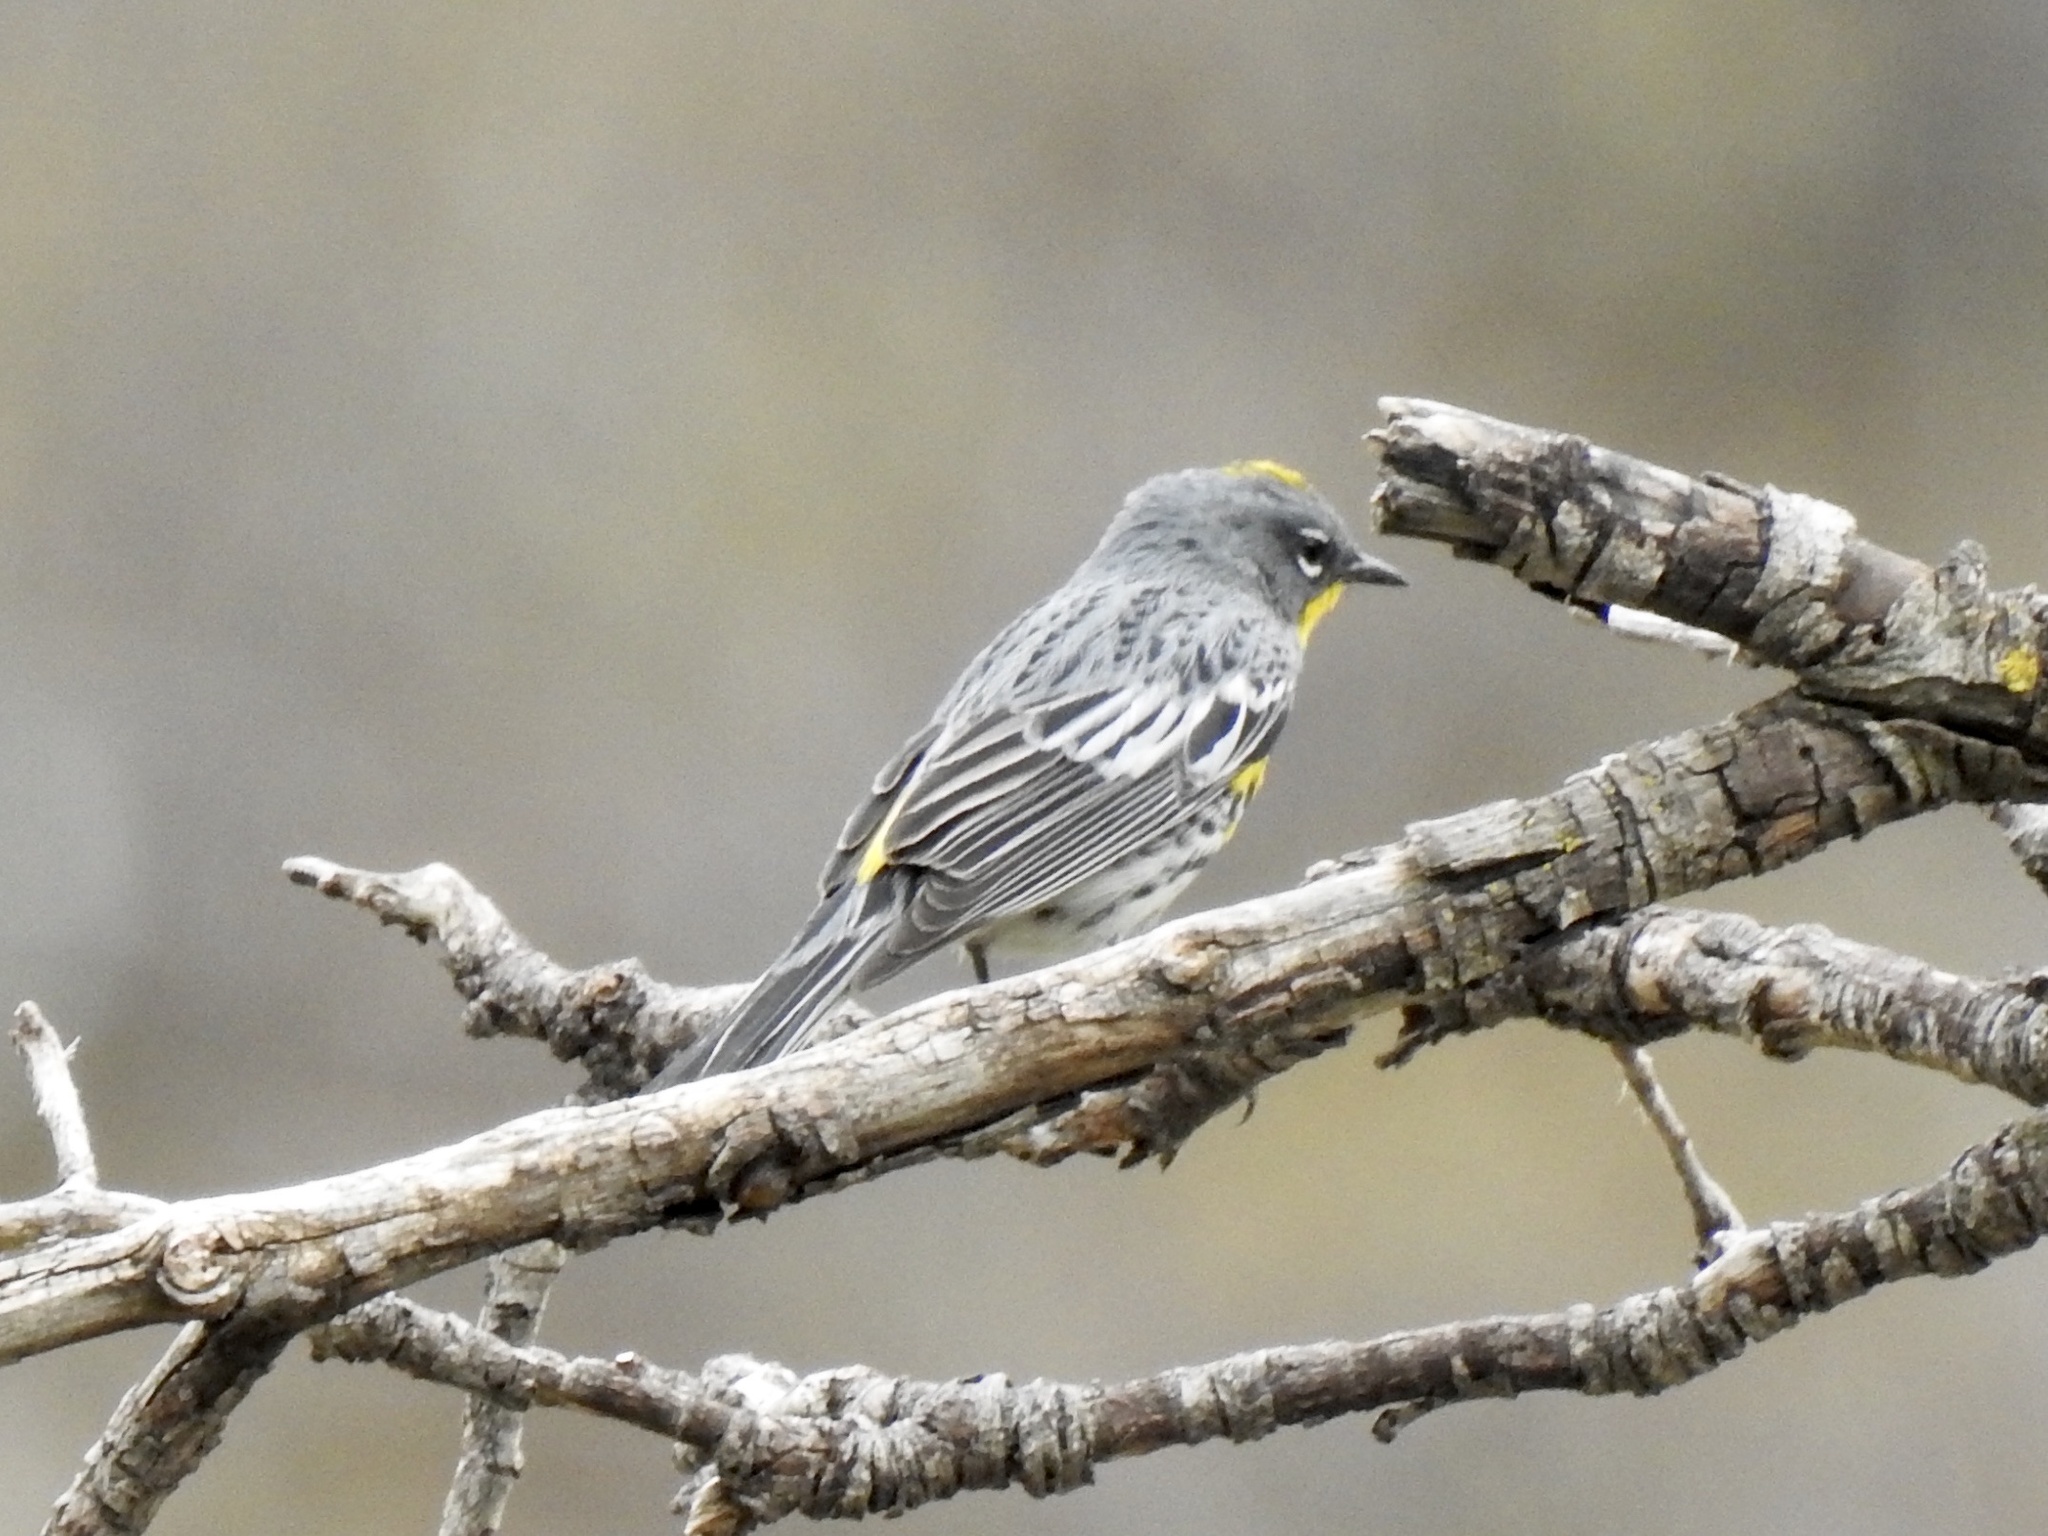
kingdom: Animalia
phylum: Chordata
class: Aves
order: Passeriformes
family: Parulidae
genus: Setophaga
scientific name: Setophaga coronata
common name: Myrtle warbler
